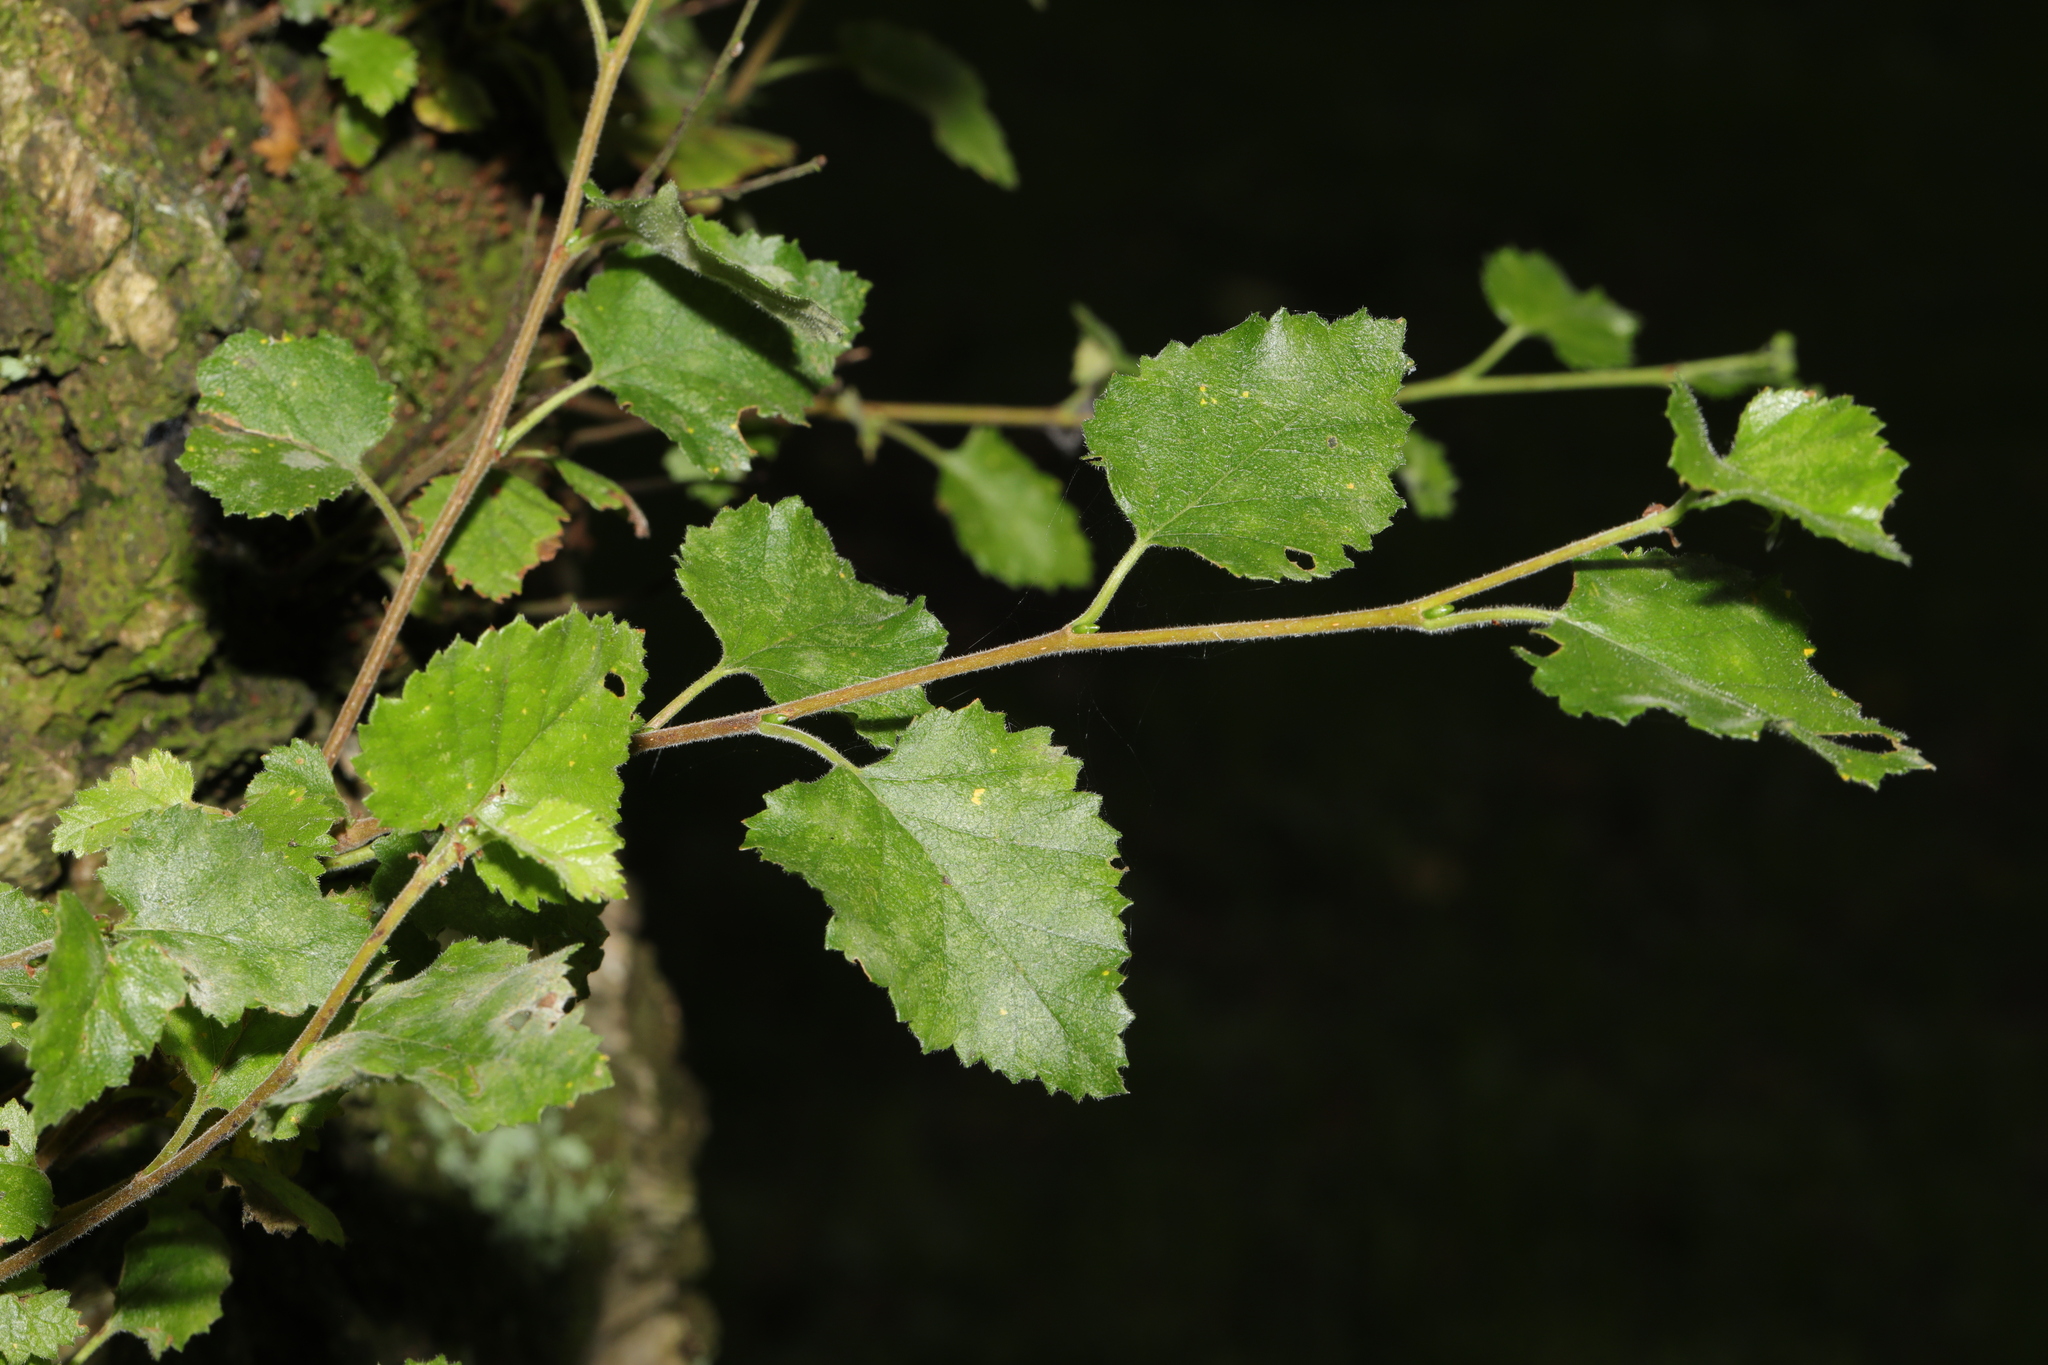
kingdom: Plantae
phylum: Tracheophyta
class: Magnoliopsida
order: Fagales
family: Betulaceae
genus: Betula
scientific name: Betula pubescens
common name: Downy birch
